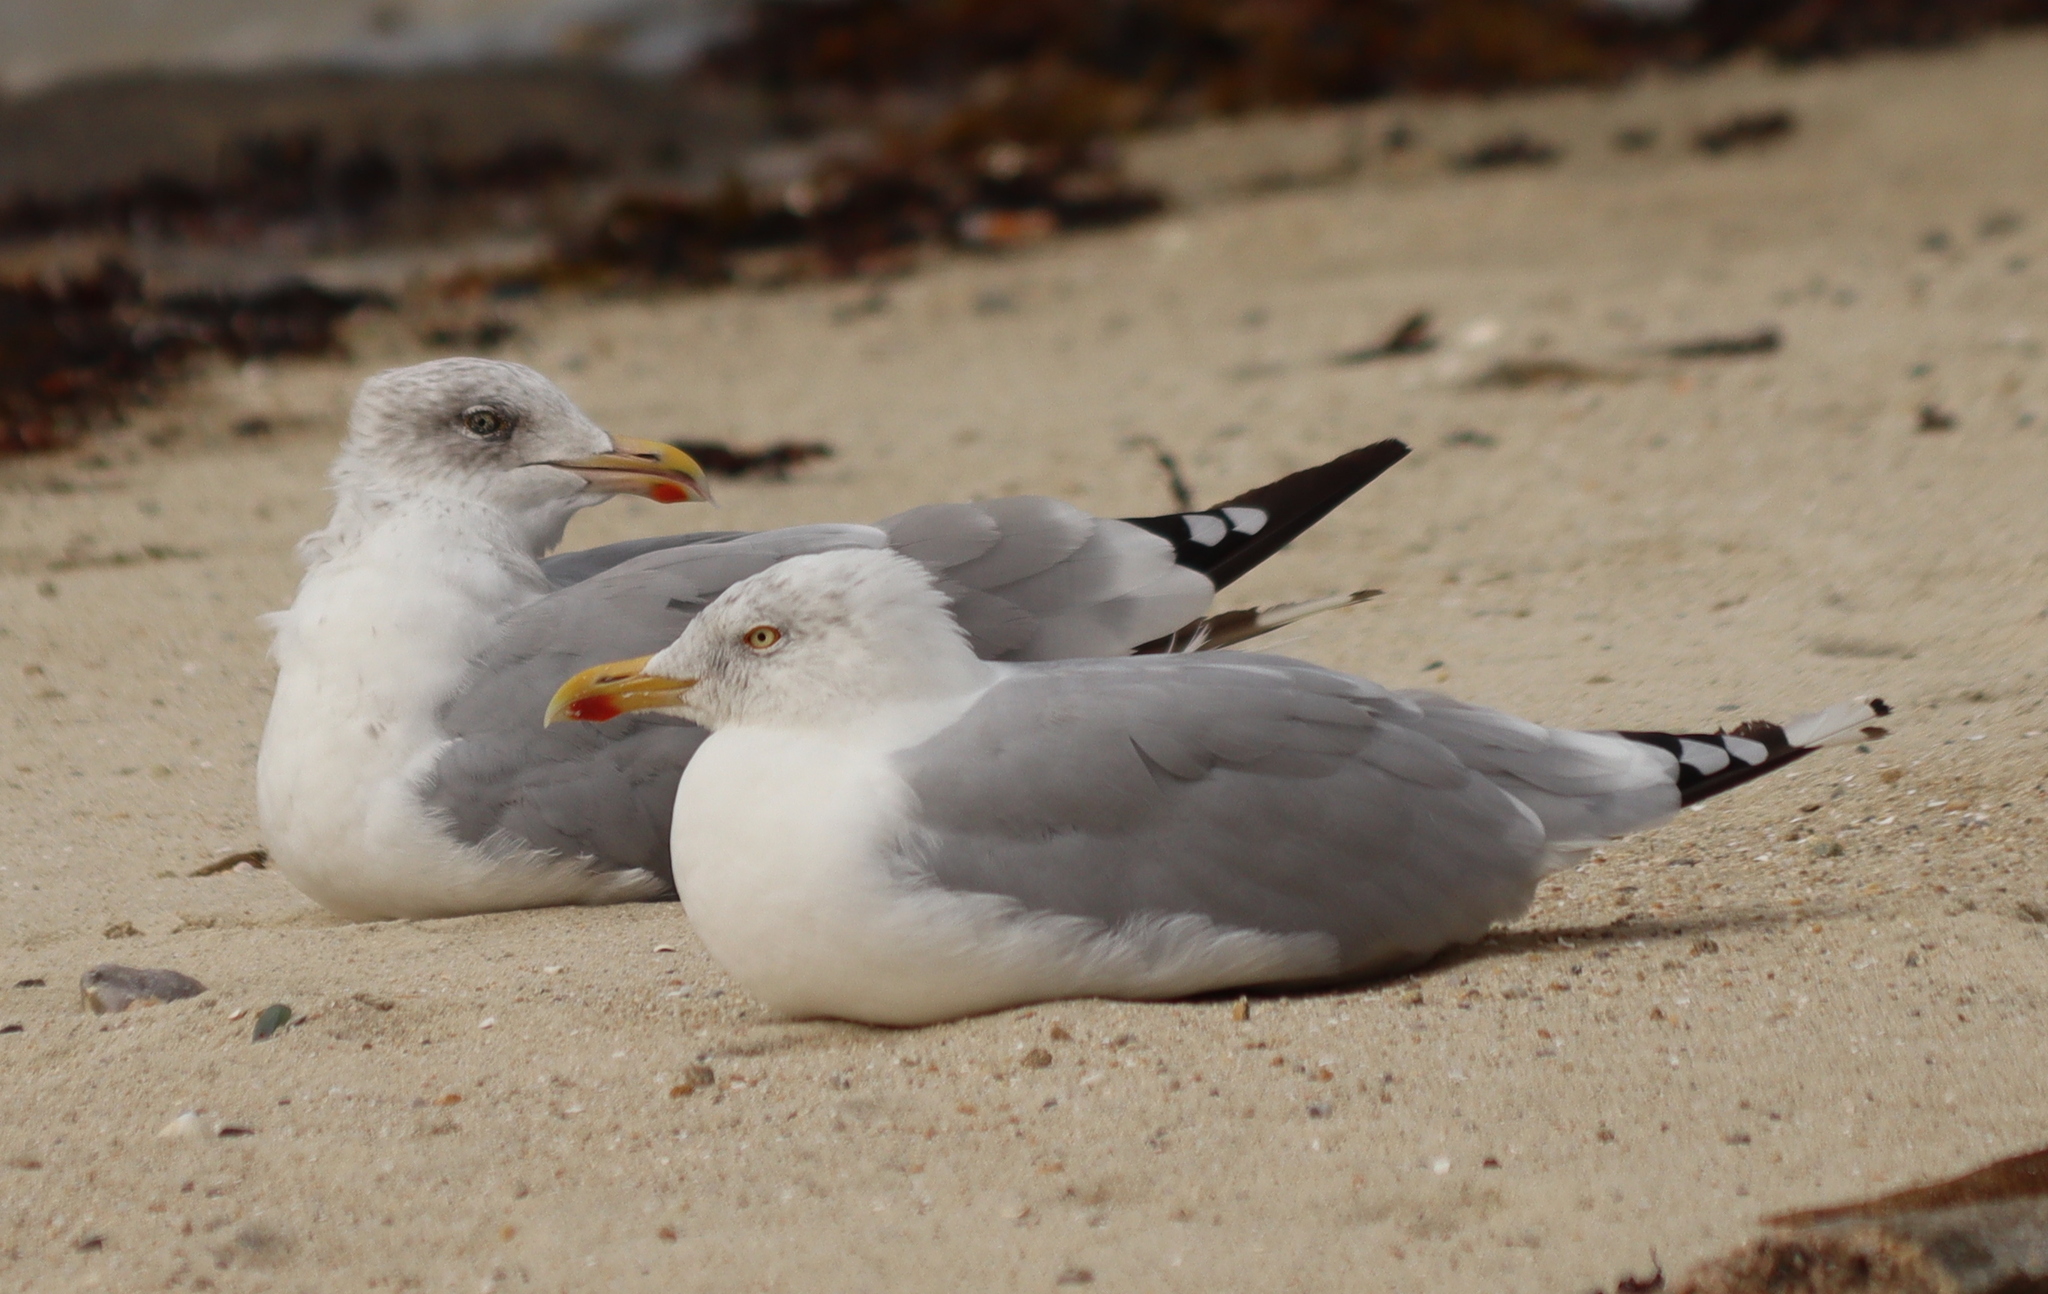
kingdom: Animalia
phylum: Chordata
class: Aves
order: Charadriiformes
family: Laridae
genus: Larus
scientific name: Larus argentatus
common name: Herring gull
